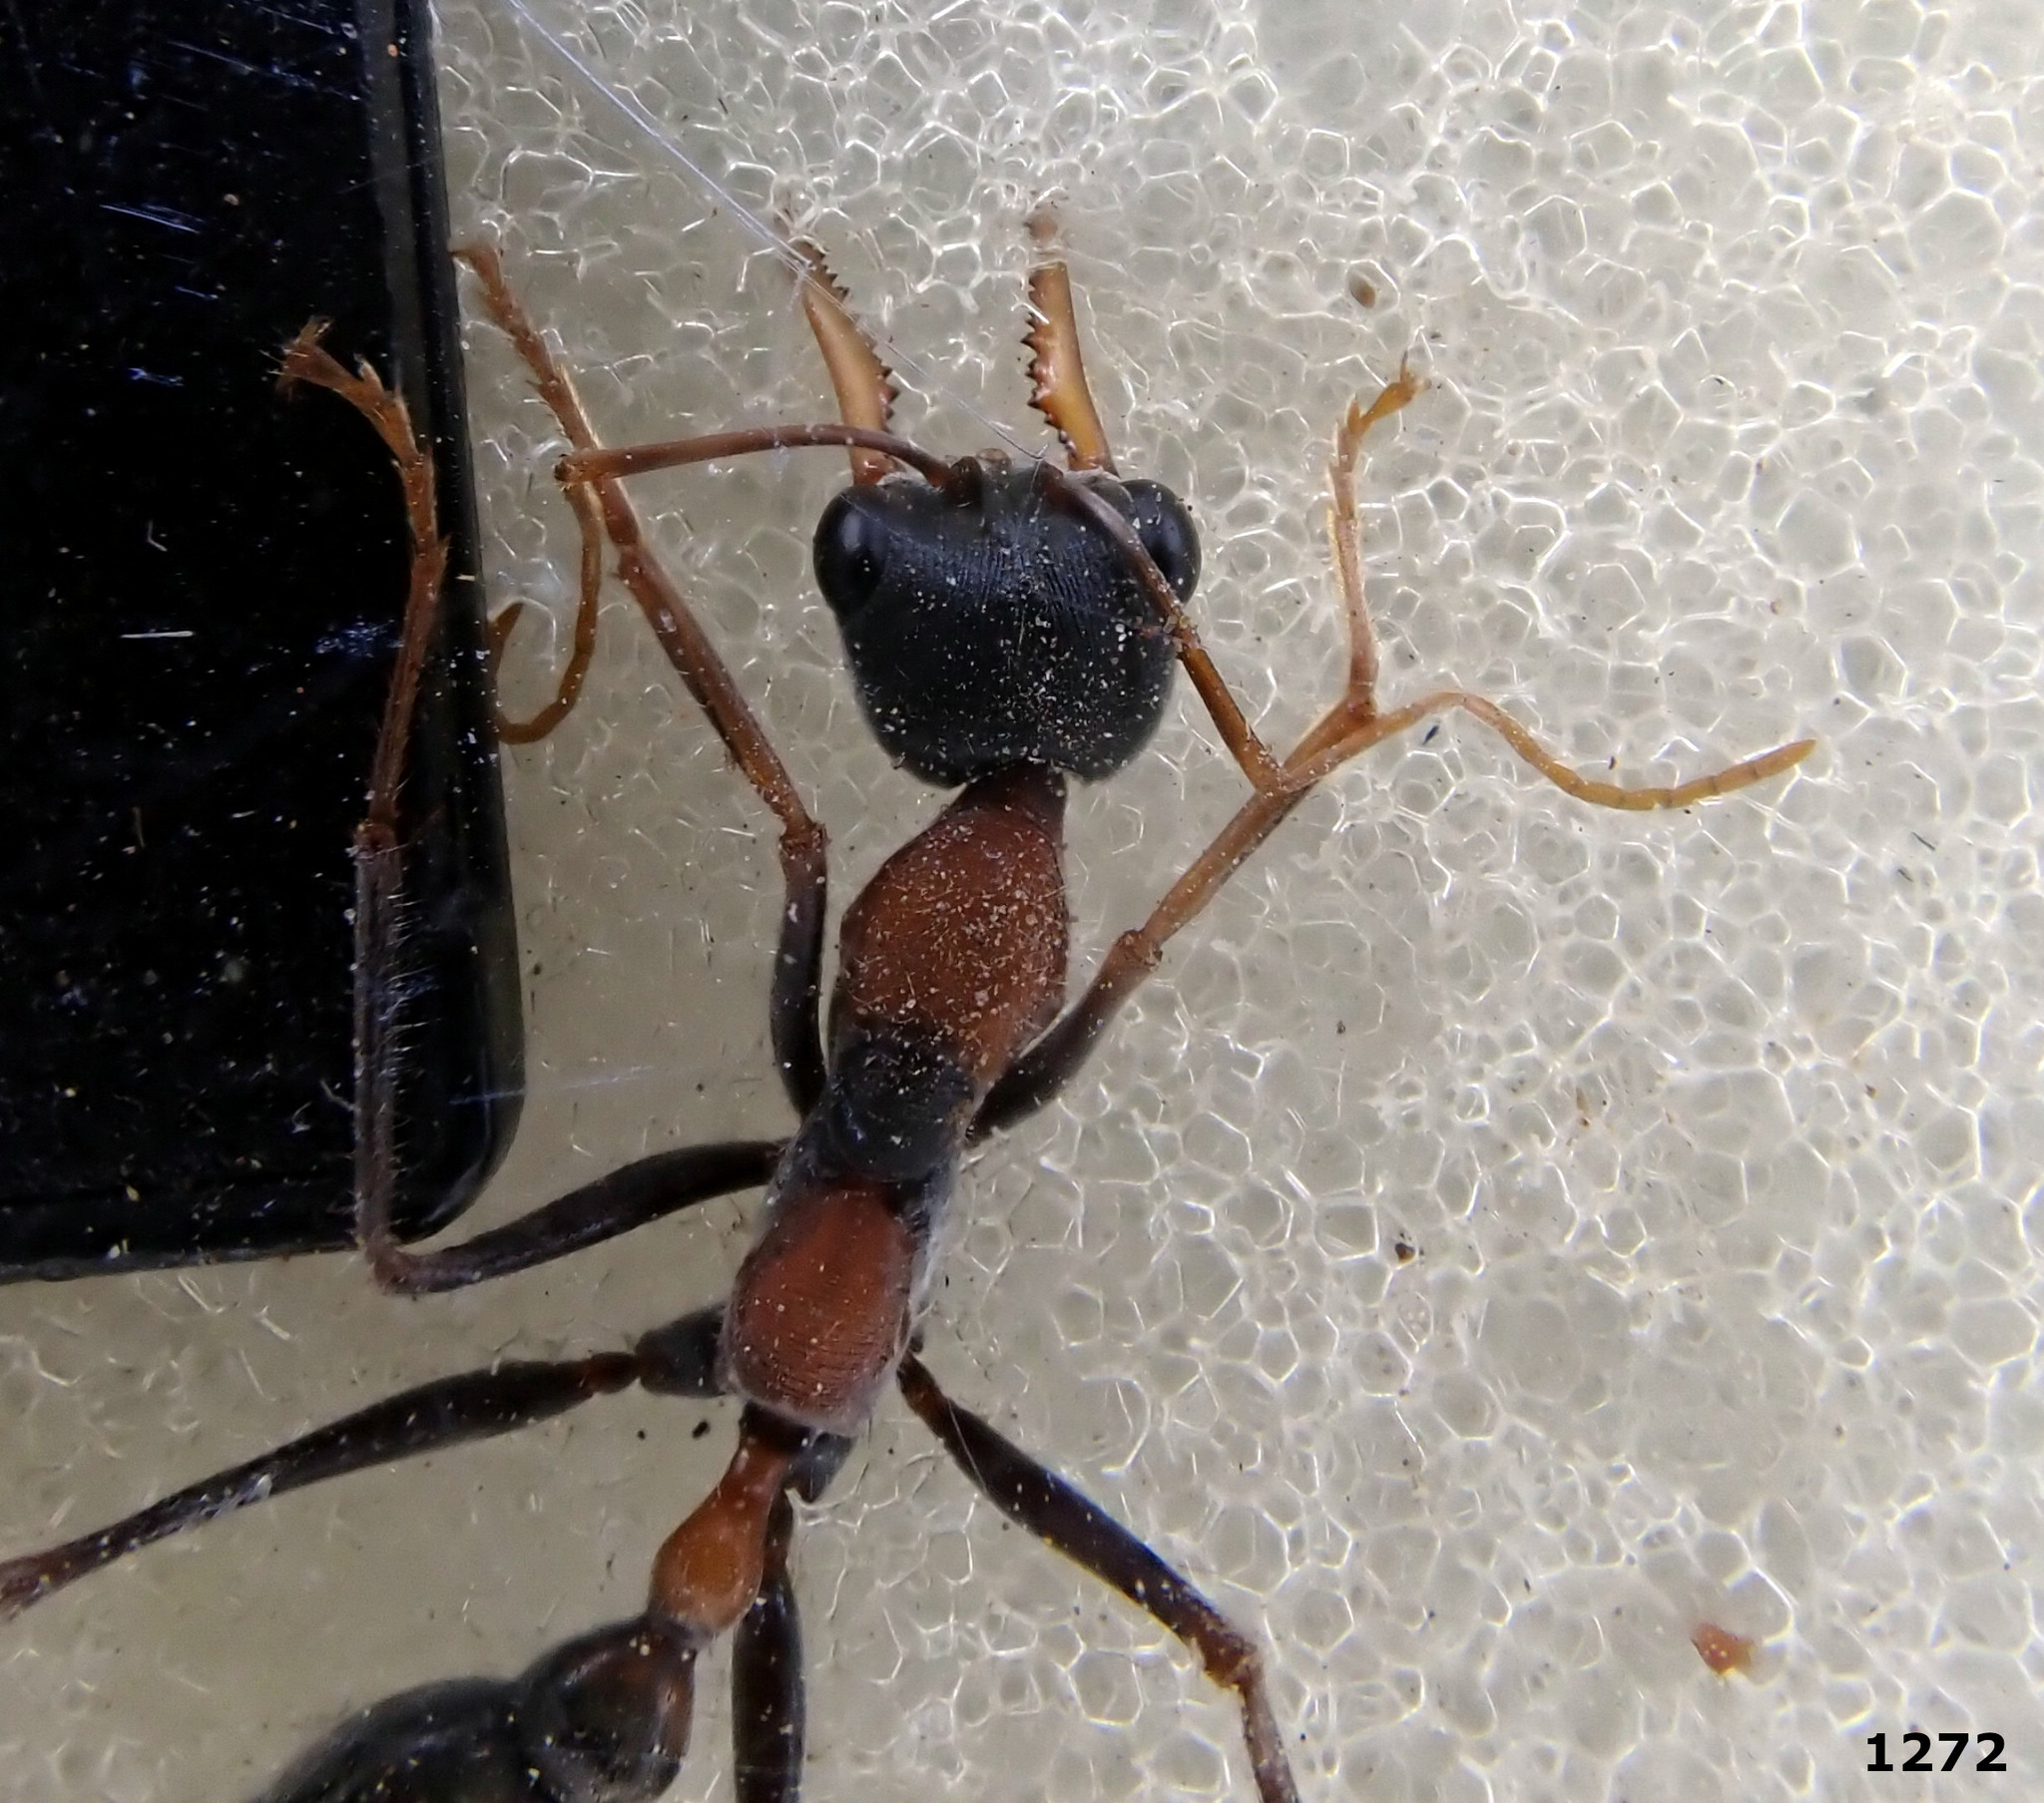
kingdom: Animalia
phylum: Arthropoda
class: Insecta
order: Hymenoptera
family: Formicidae
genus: Myrmecia
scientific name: Myrmecia nigrocincta
